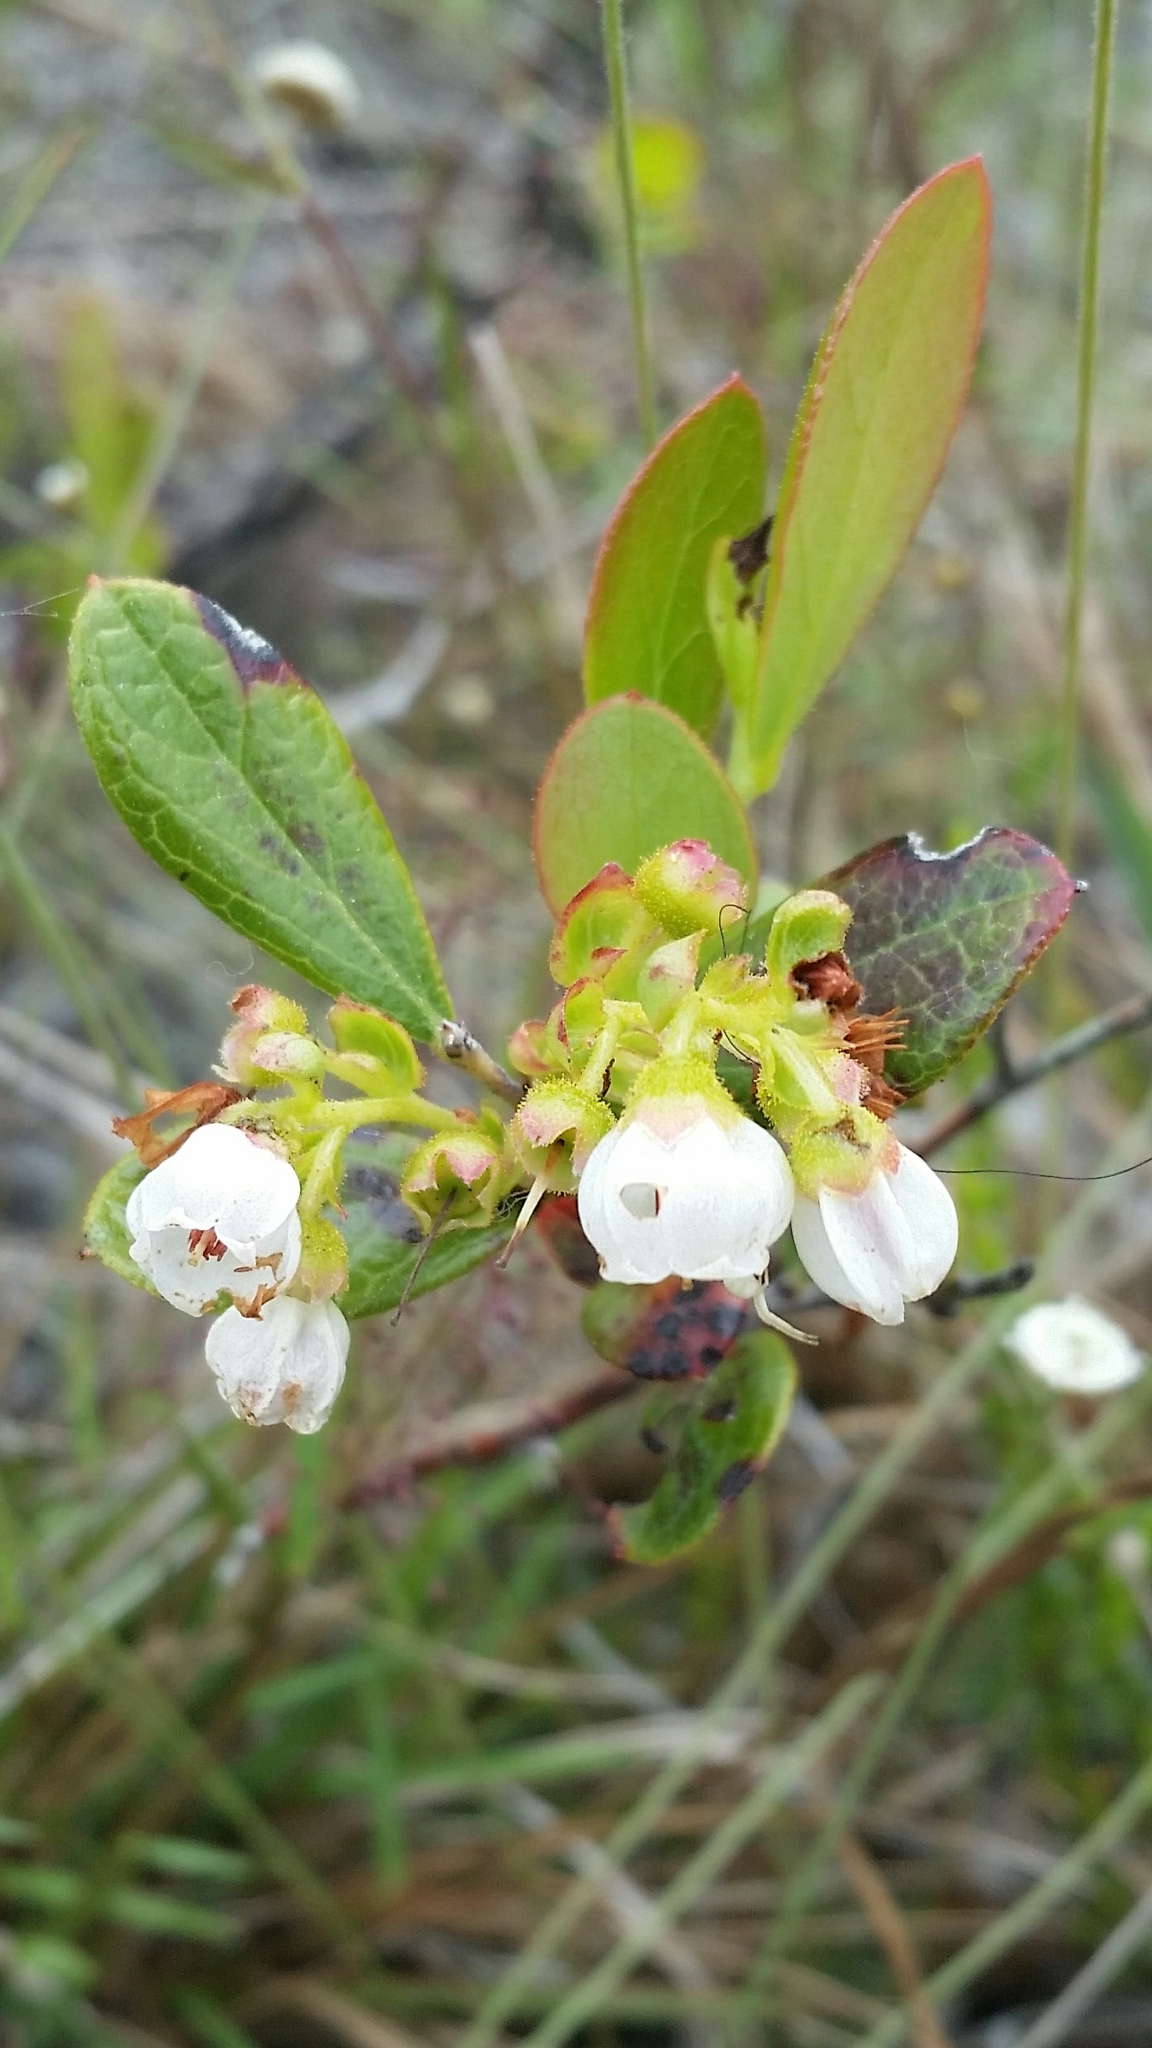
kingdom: Plantae
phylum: Tracheophyta
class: Magnoliopsida
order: Ericales
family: Ericaceae
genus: Gaylussacia
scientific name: Gaylussacia dumosa
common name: Dwarf huckleberry
